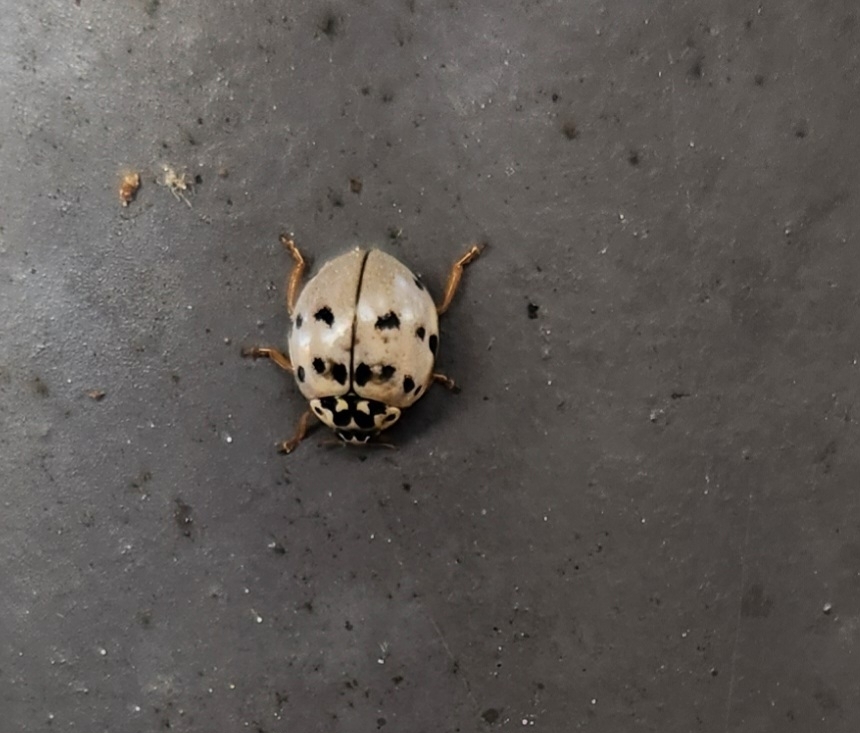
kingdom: Animalia
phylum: Arthropoda
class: Insecta
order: Coleoptera
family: Coccinellidae
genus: Olla
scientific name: Olla v-nigrum
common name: Ashy gray lady beetle
